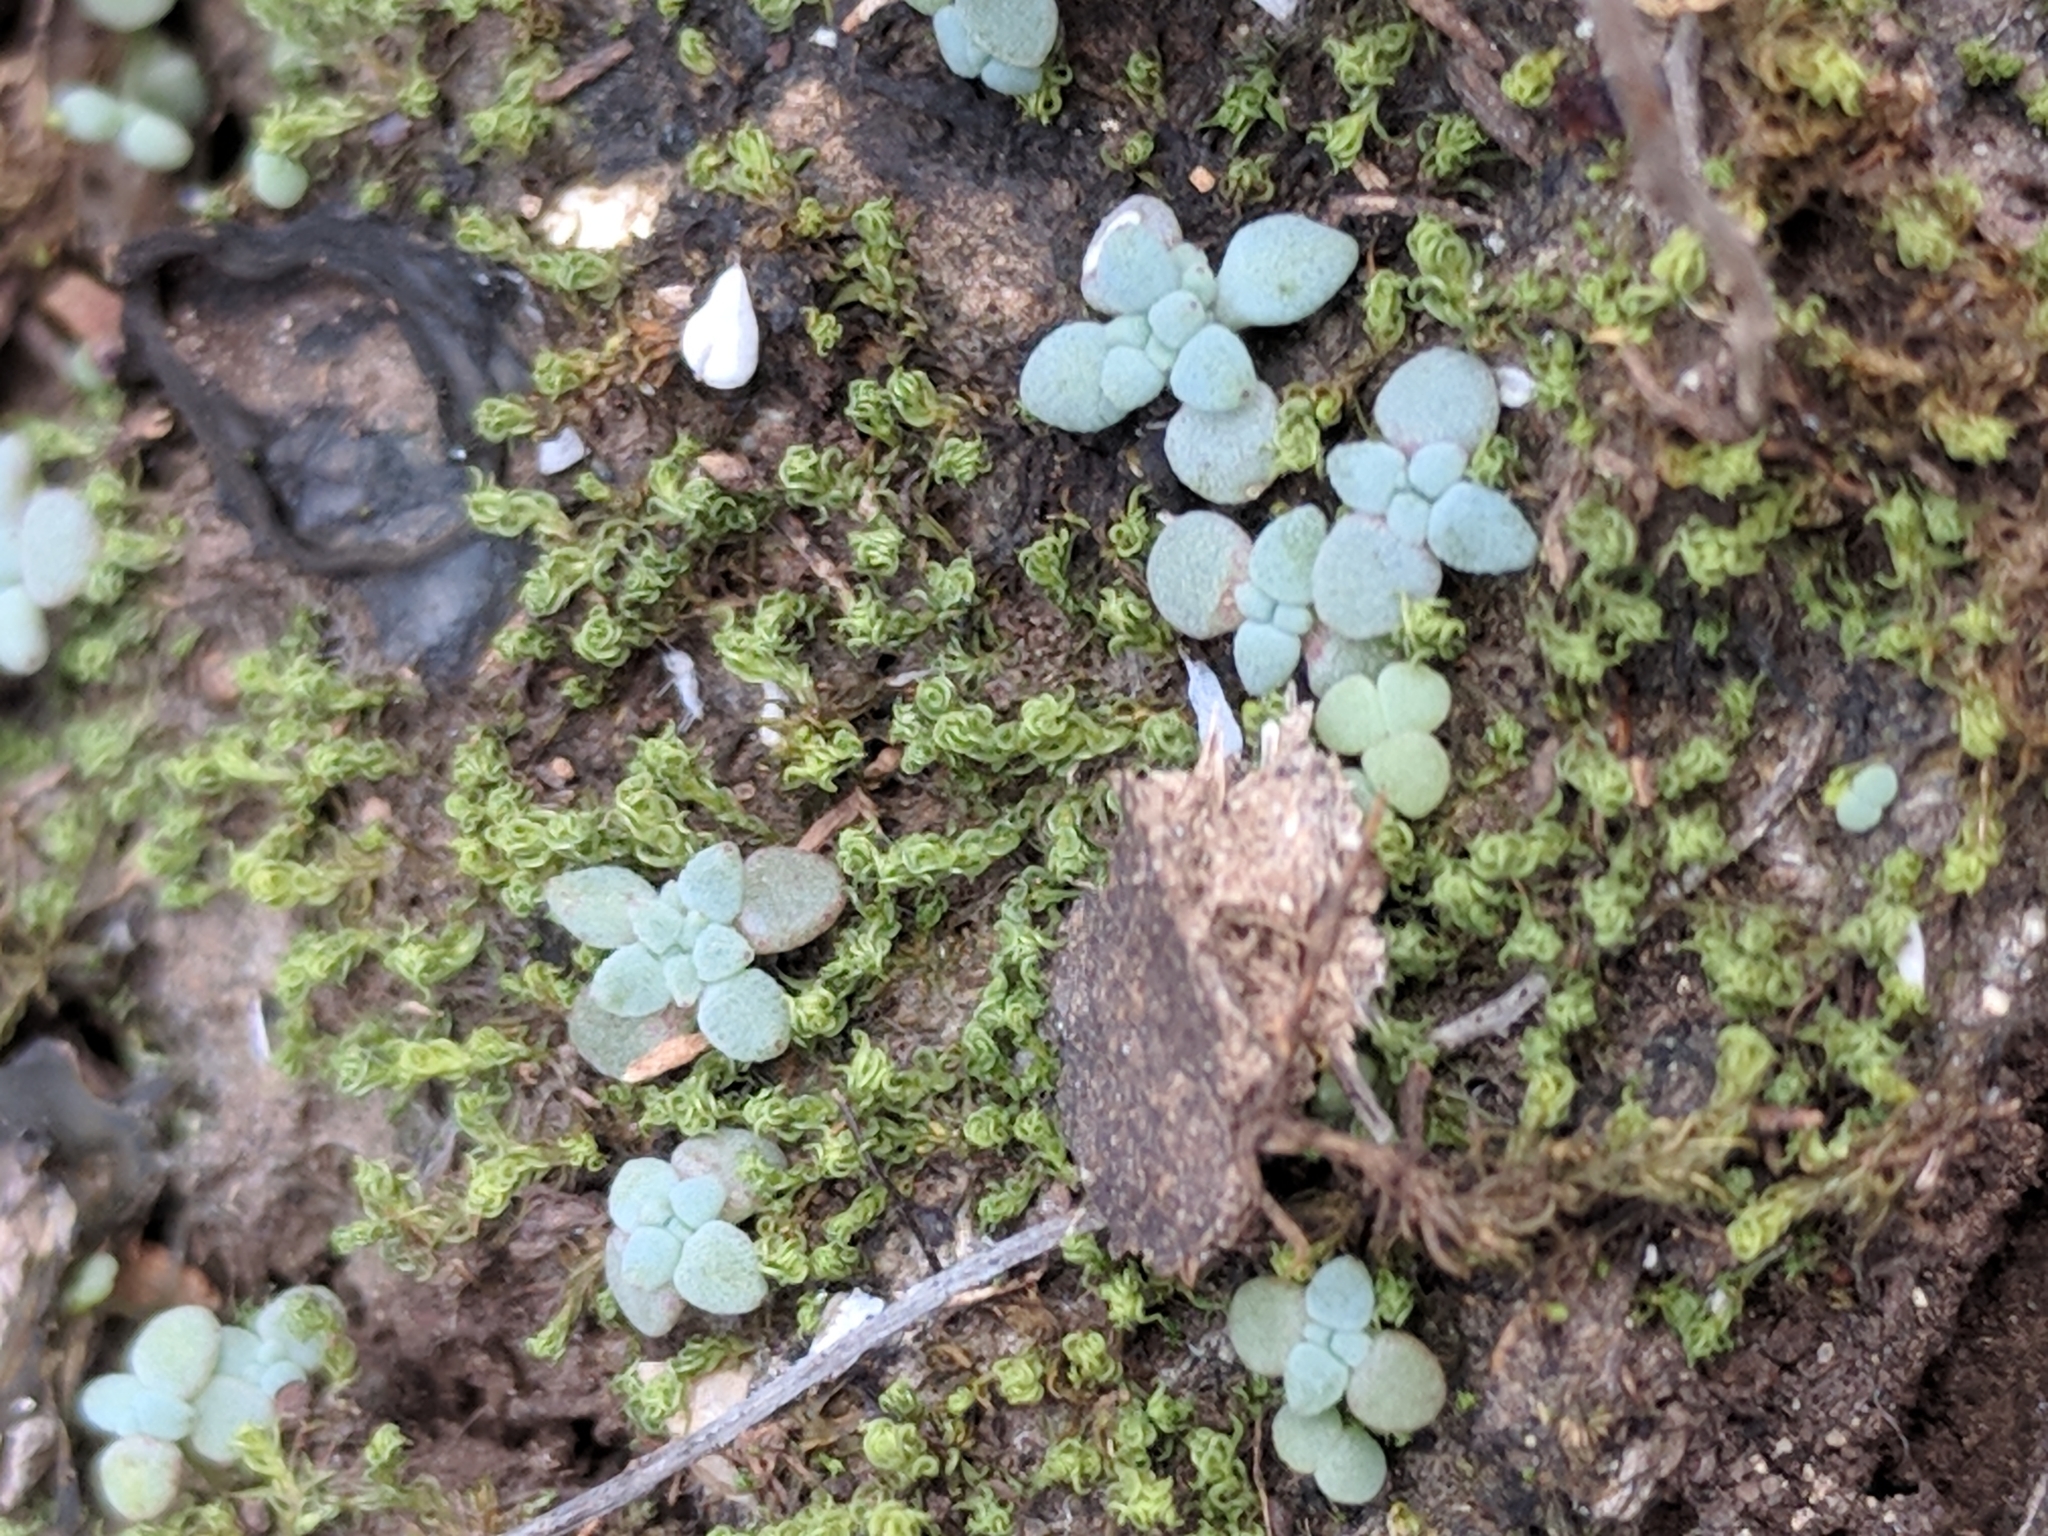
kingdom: Plantae
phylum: Tracheophyta
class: Magnoliopsida
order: Saxifragales
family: Crassulaceae
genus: Sedum
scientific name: Sedum nuttallii
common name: Yellow stonecrop
